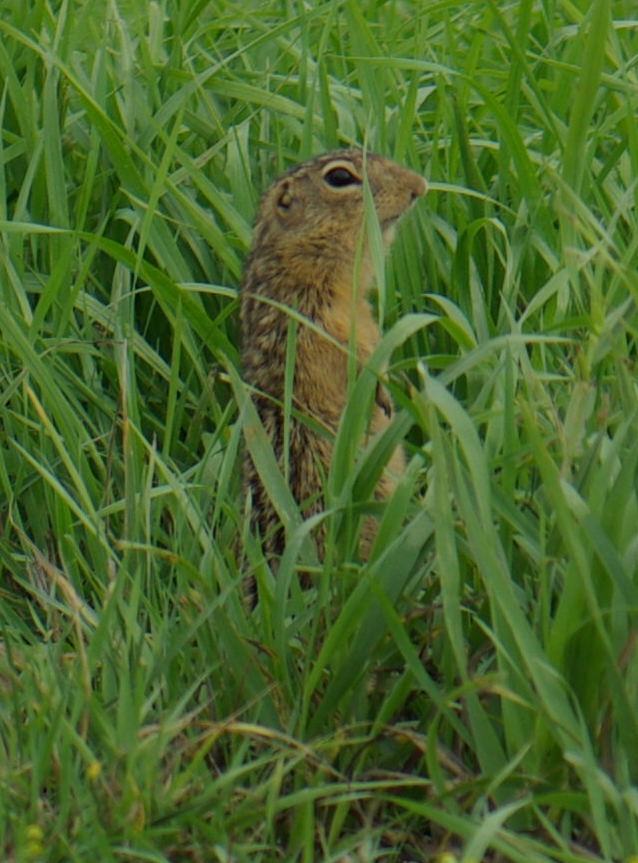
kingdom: Animalia
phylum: Chordata
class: Mammalia
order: Rodentia
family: Sciuridae
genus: Ictidomys
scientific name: Ictidomys tridecemlineatus
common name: Thirteen-lined ground squirrel
